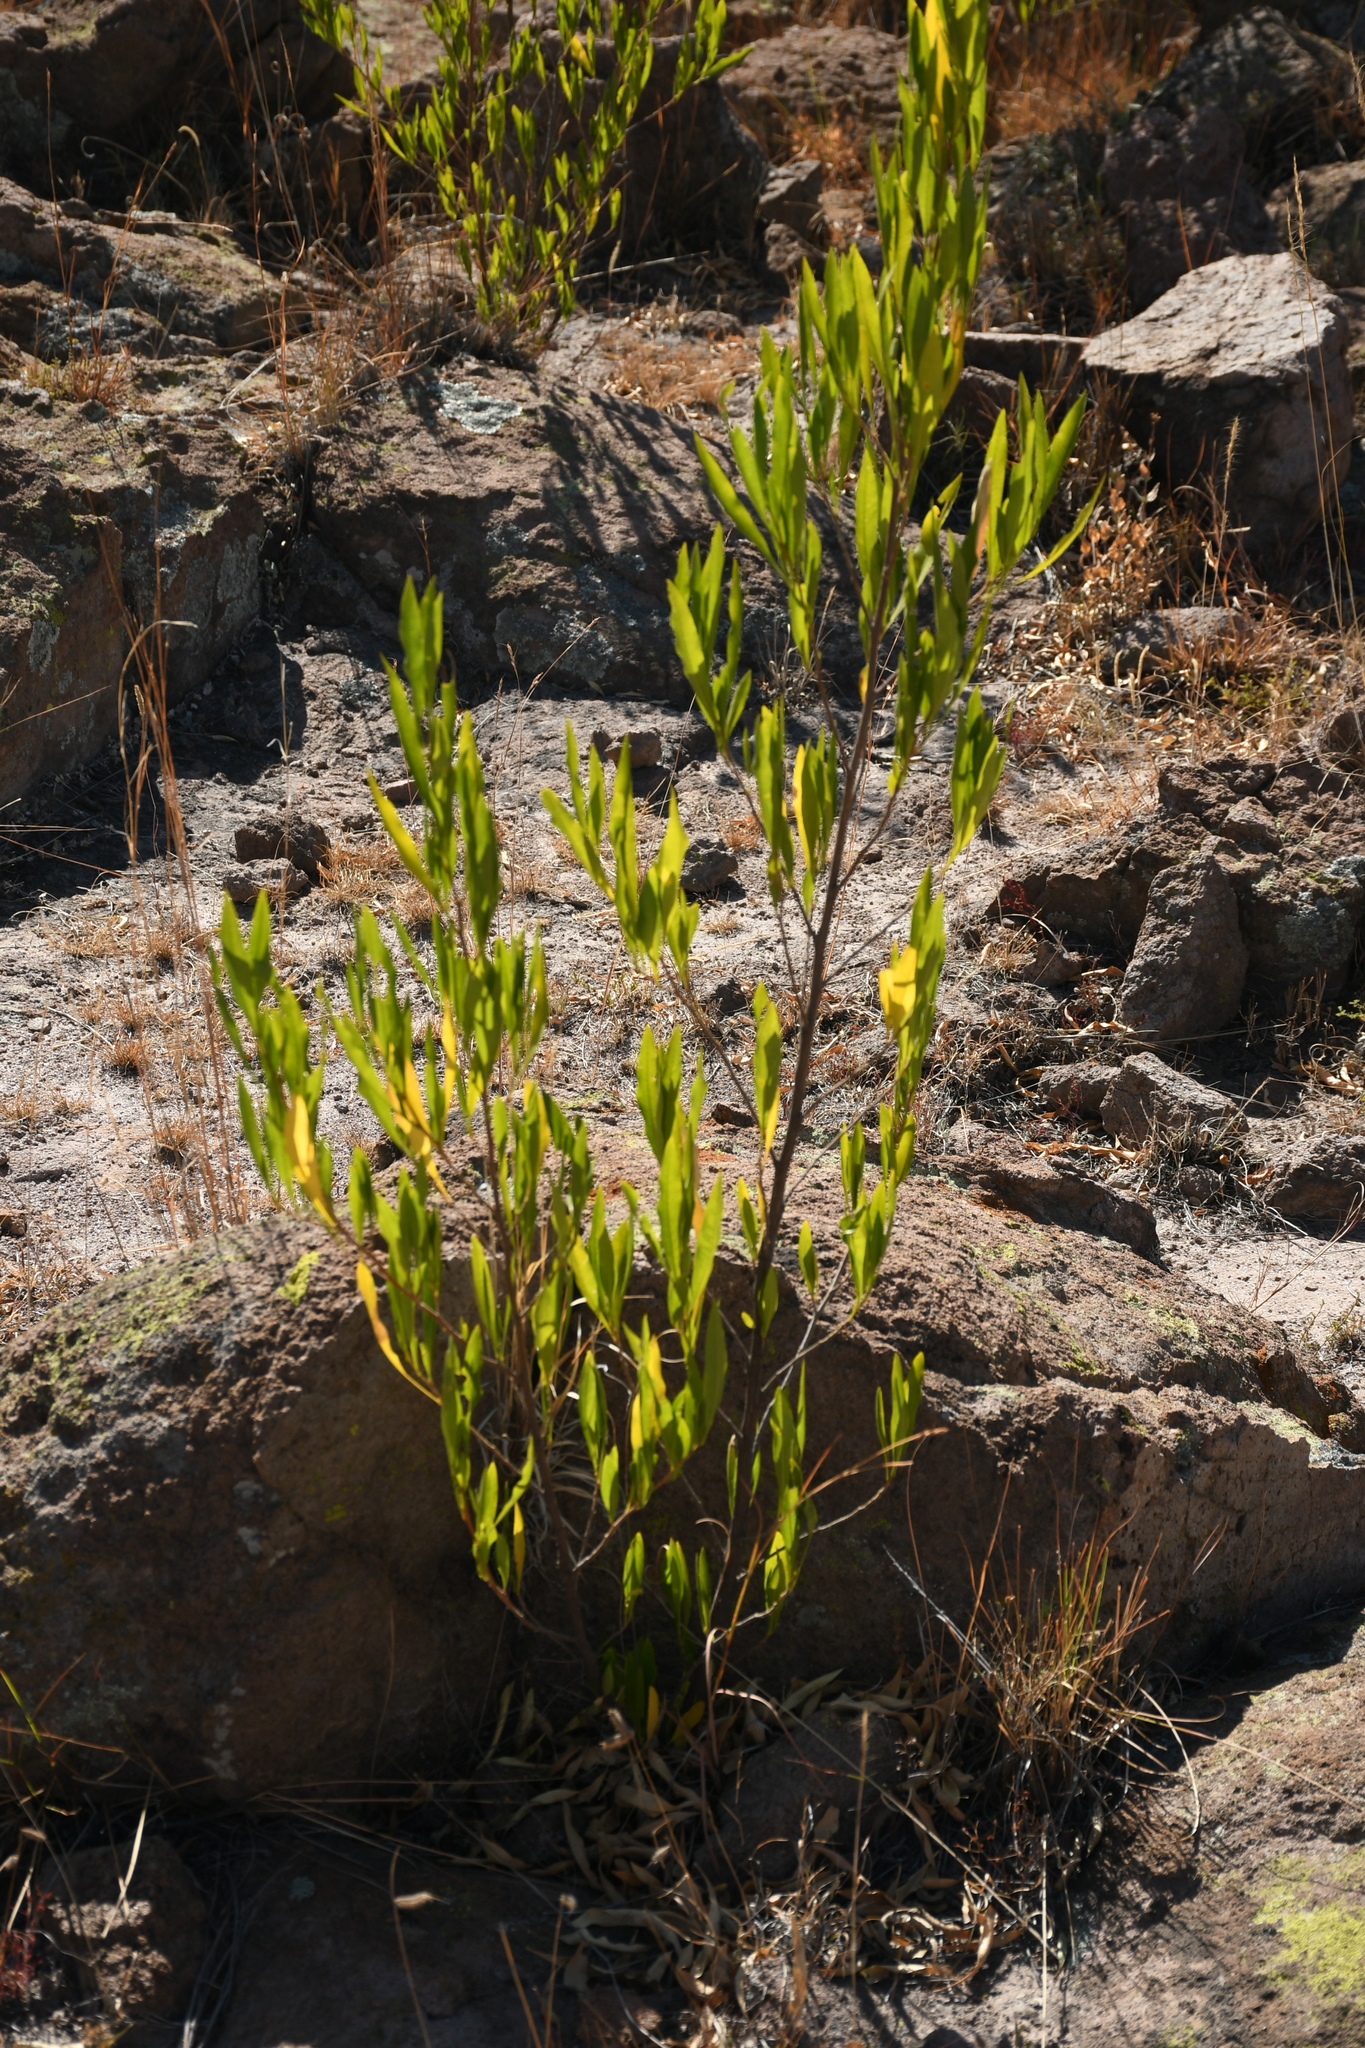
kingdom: Plantae
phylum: Tracheophyta
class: Magnoliopsida
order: Sapindales
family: Sapindaceae
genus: Dodonaea
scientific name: Dodonaea viscosa
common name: Hopbush
